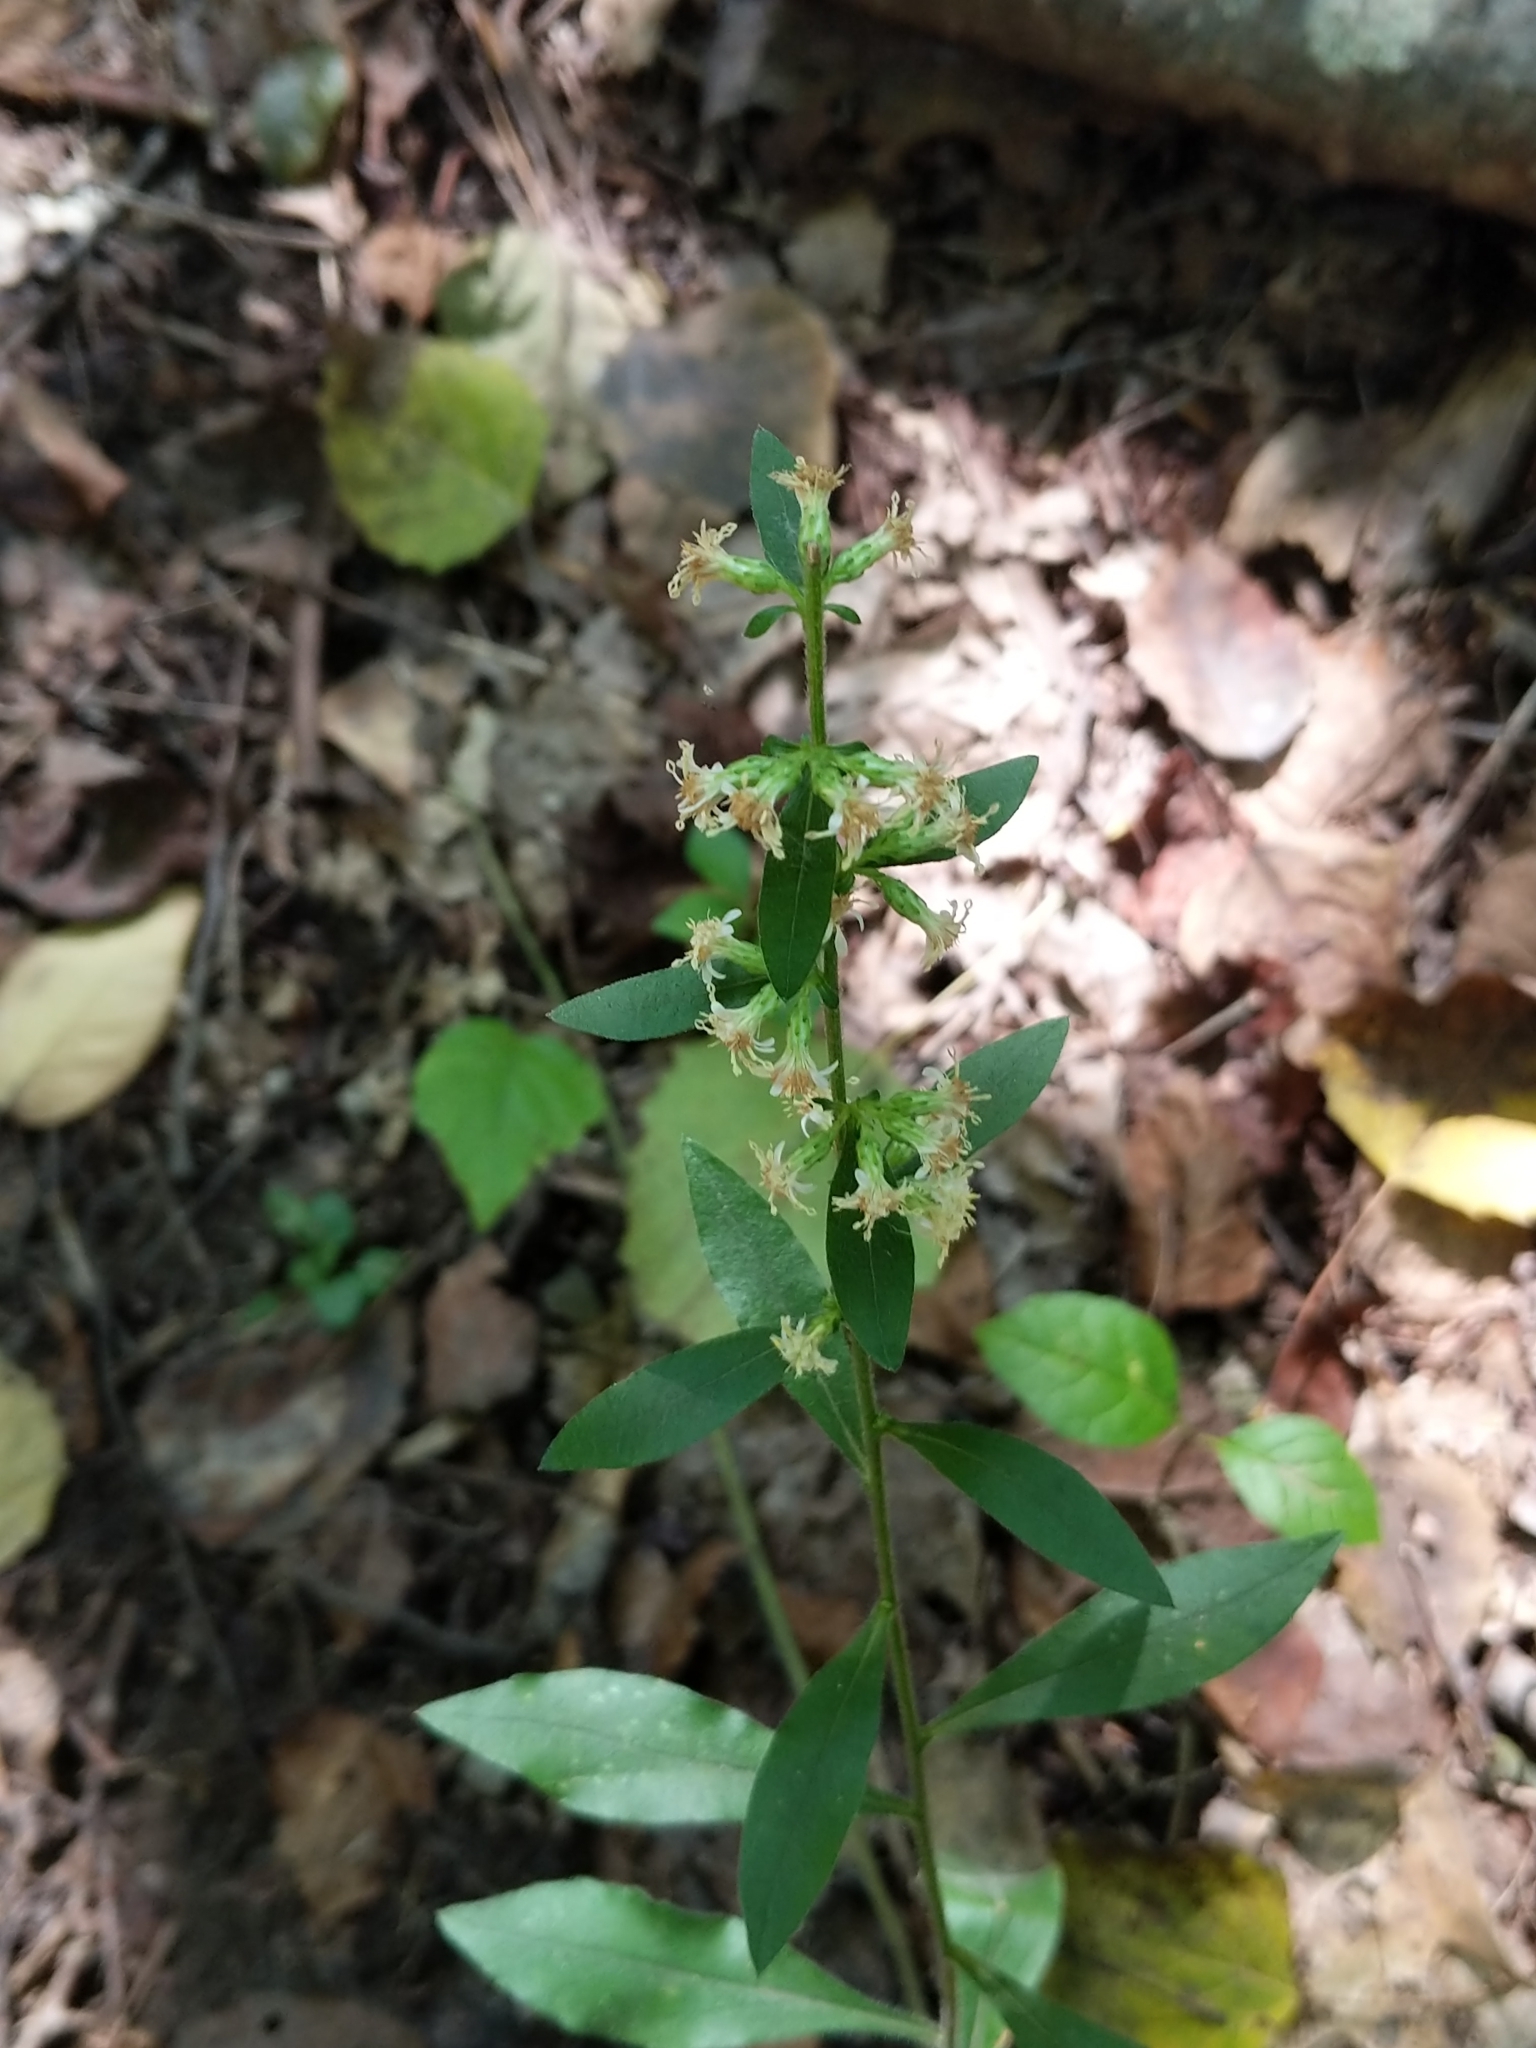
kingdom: Plantae
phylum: Tracheophyta
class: Magnoliopsida
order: Asterales
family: Asteraceae
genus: Solidago
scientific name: Solidago bicolor
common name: Silverrod
